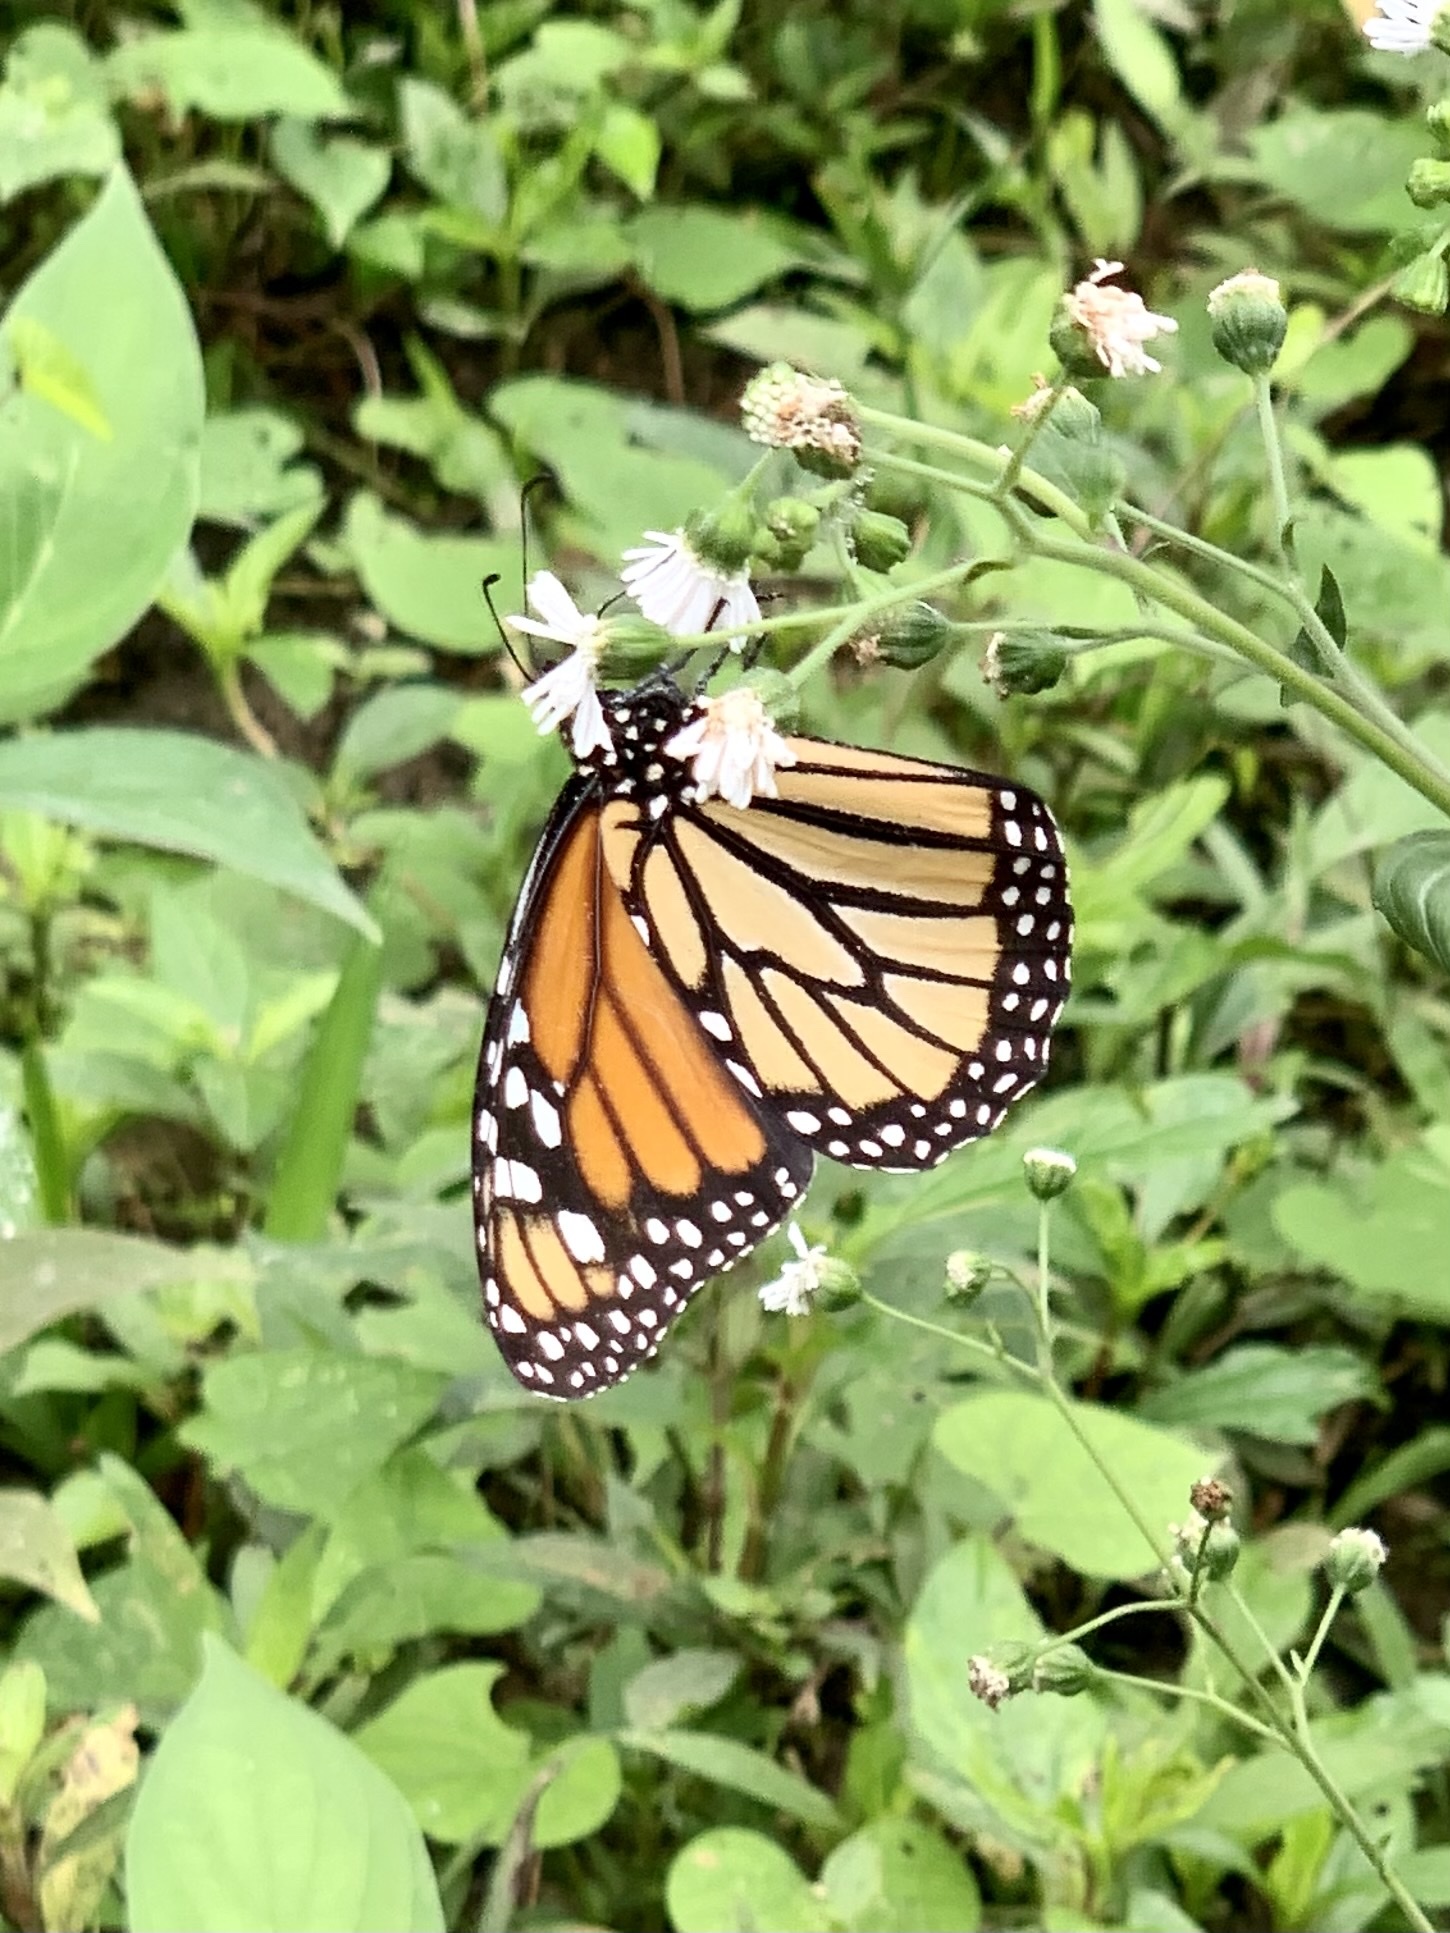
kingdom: Animalia
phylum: Arthropoda
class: Insecta
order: Lepidoptera
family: Nymphalidae
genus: Danaus
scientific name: Danaus plexippus
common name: Monarch
